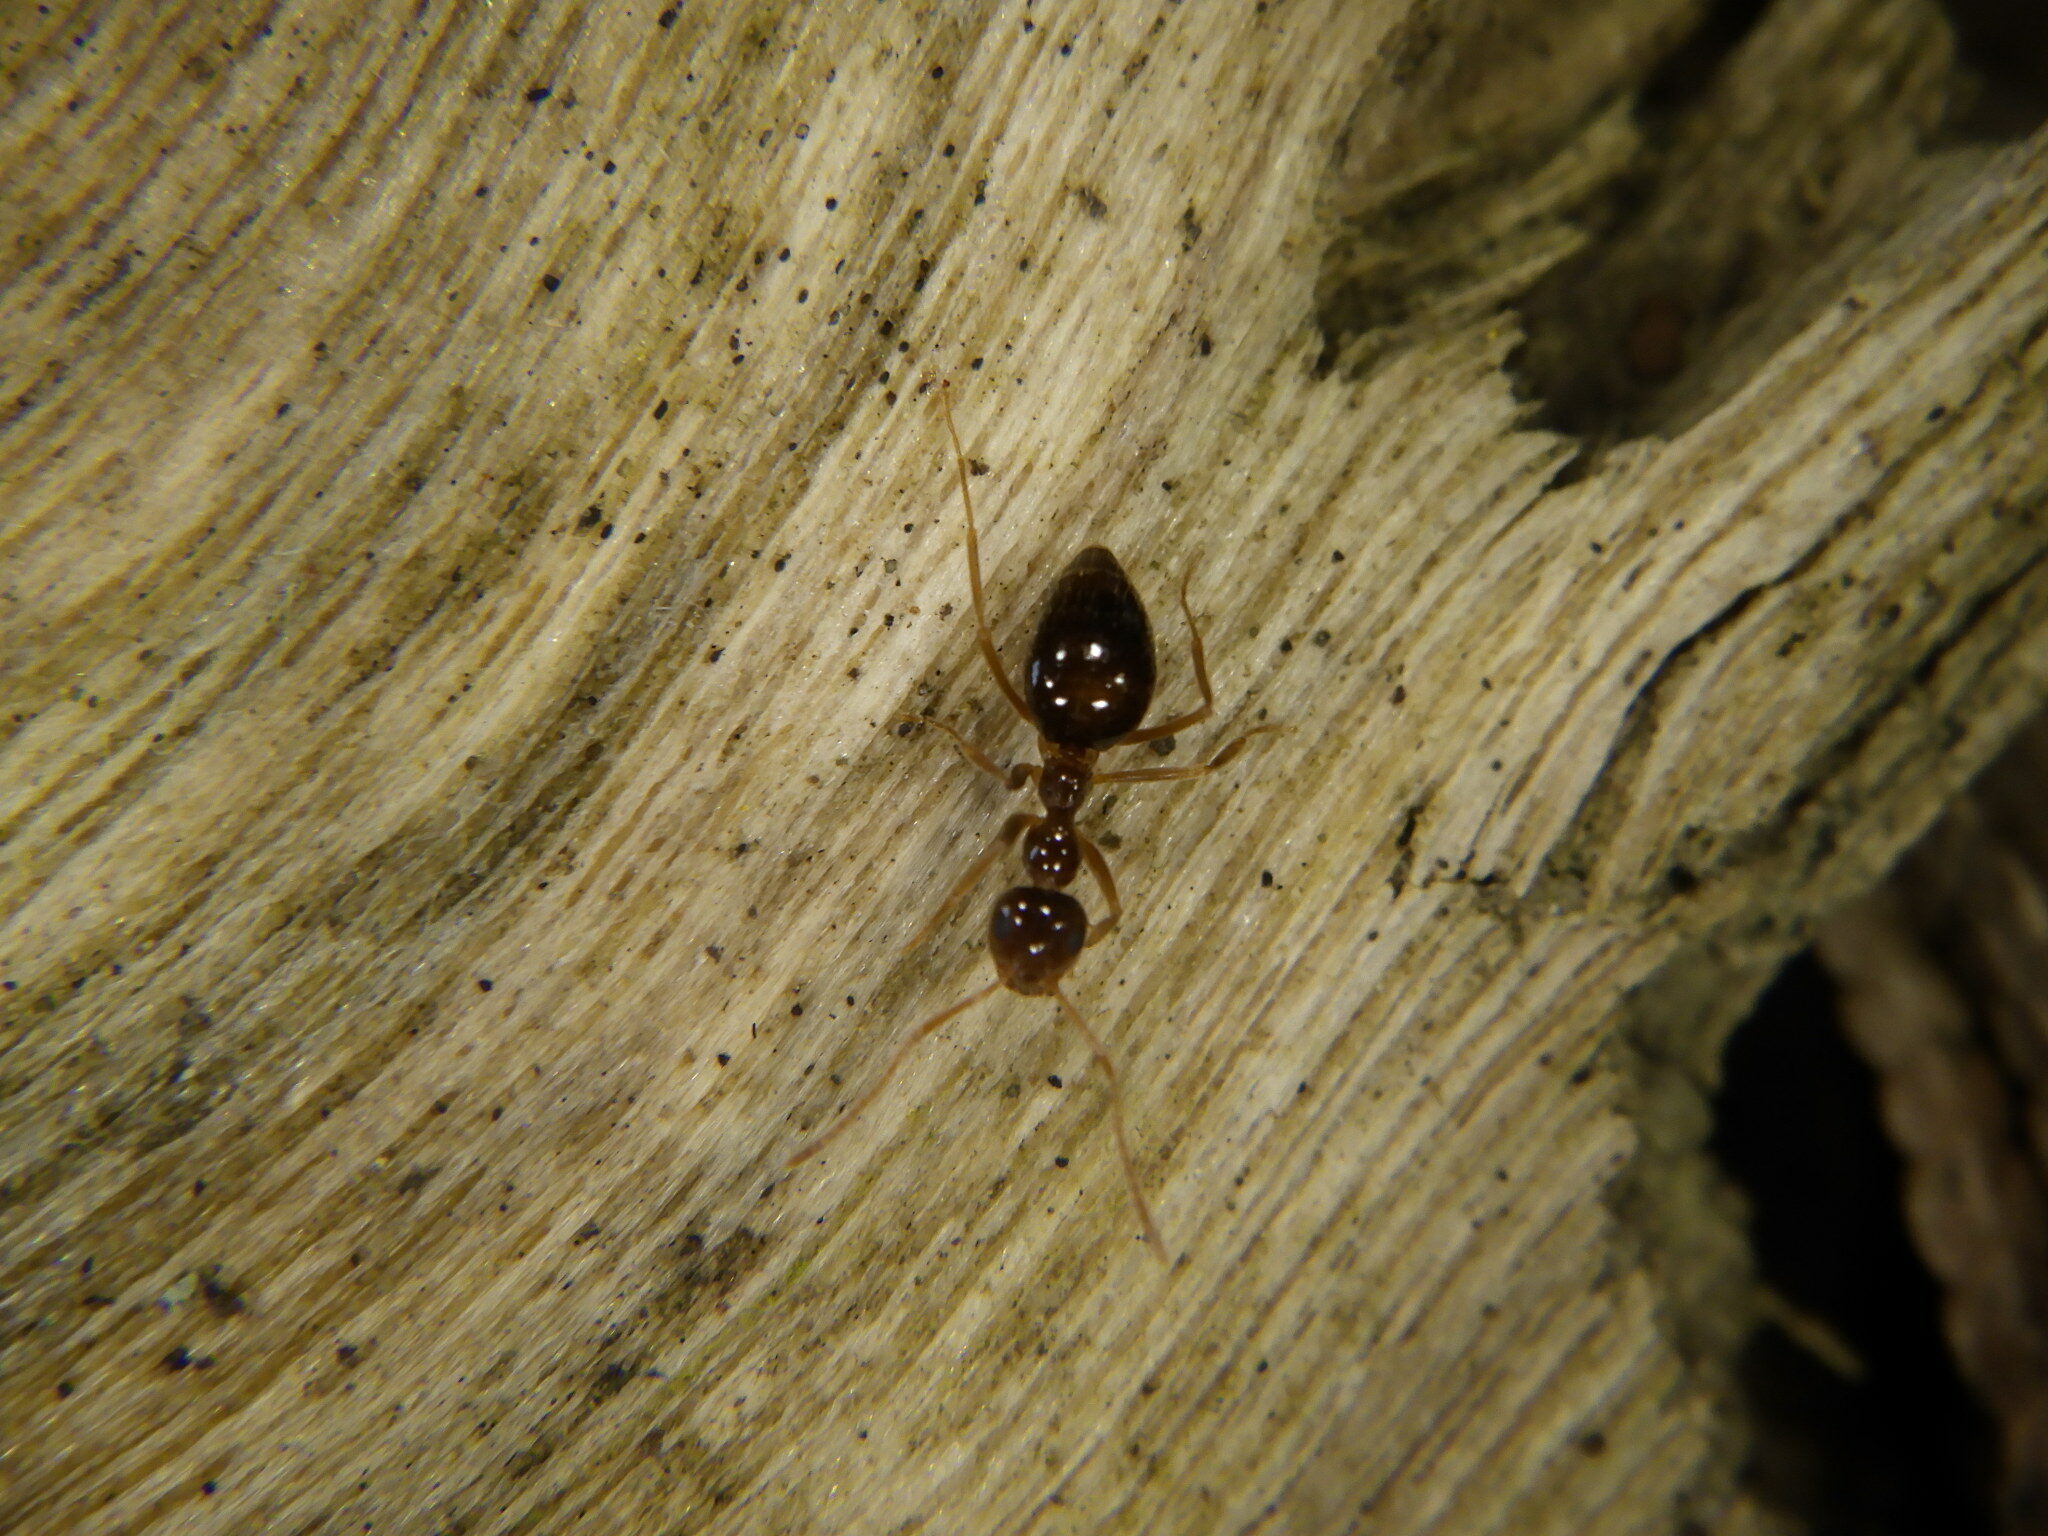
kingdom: Animalia
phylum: Arthropoda
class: Insecta
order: Hymenoptera
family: Formicidae
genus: Prenolepis
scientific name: Prenolepis imparis
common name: Small honey ant
